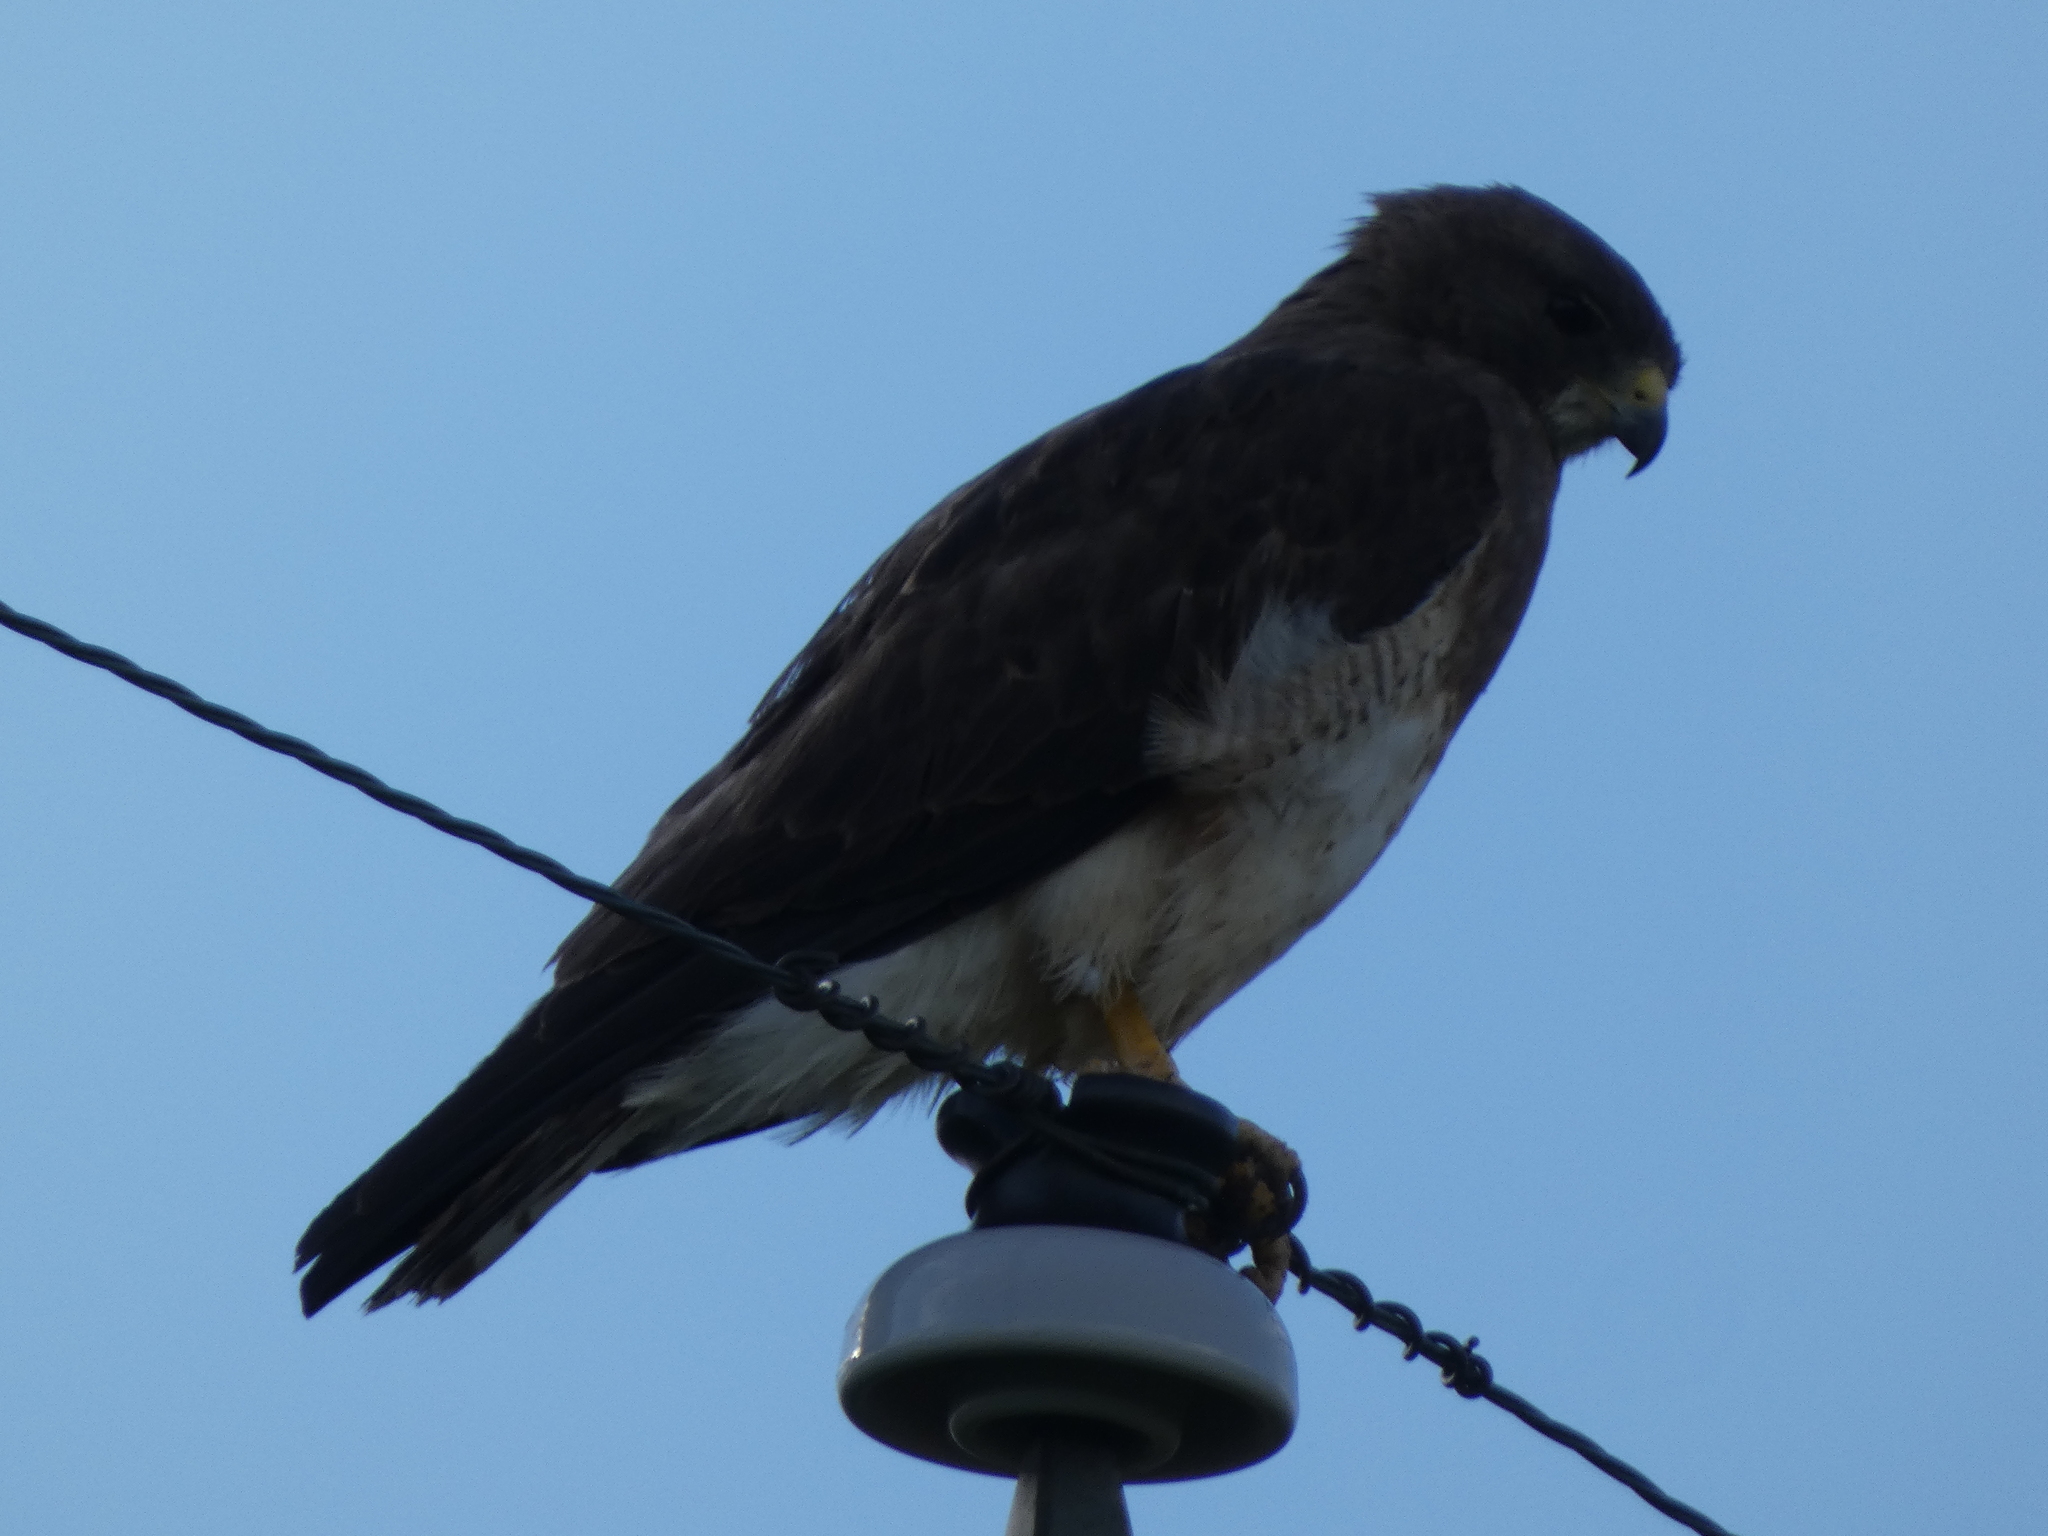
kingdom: Animalia
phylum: Chordata
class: Aves
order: Accipitriformes
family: Accipitridae
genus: Buteo
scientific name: Buteo swainsoni
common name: Swainson's hawk
